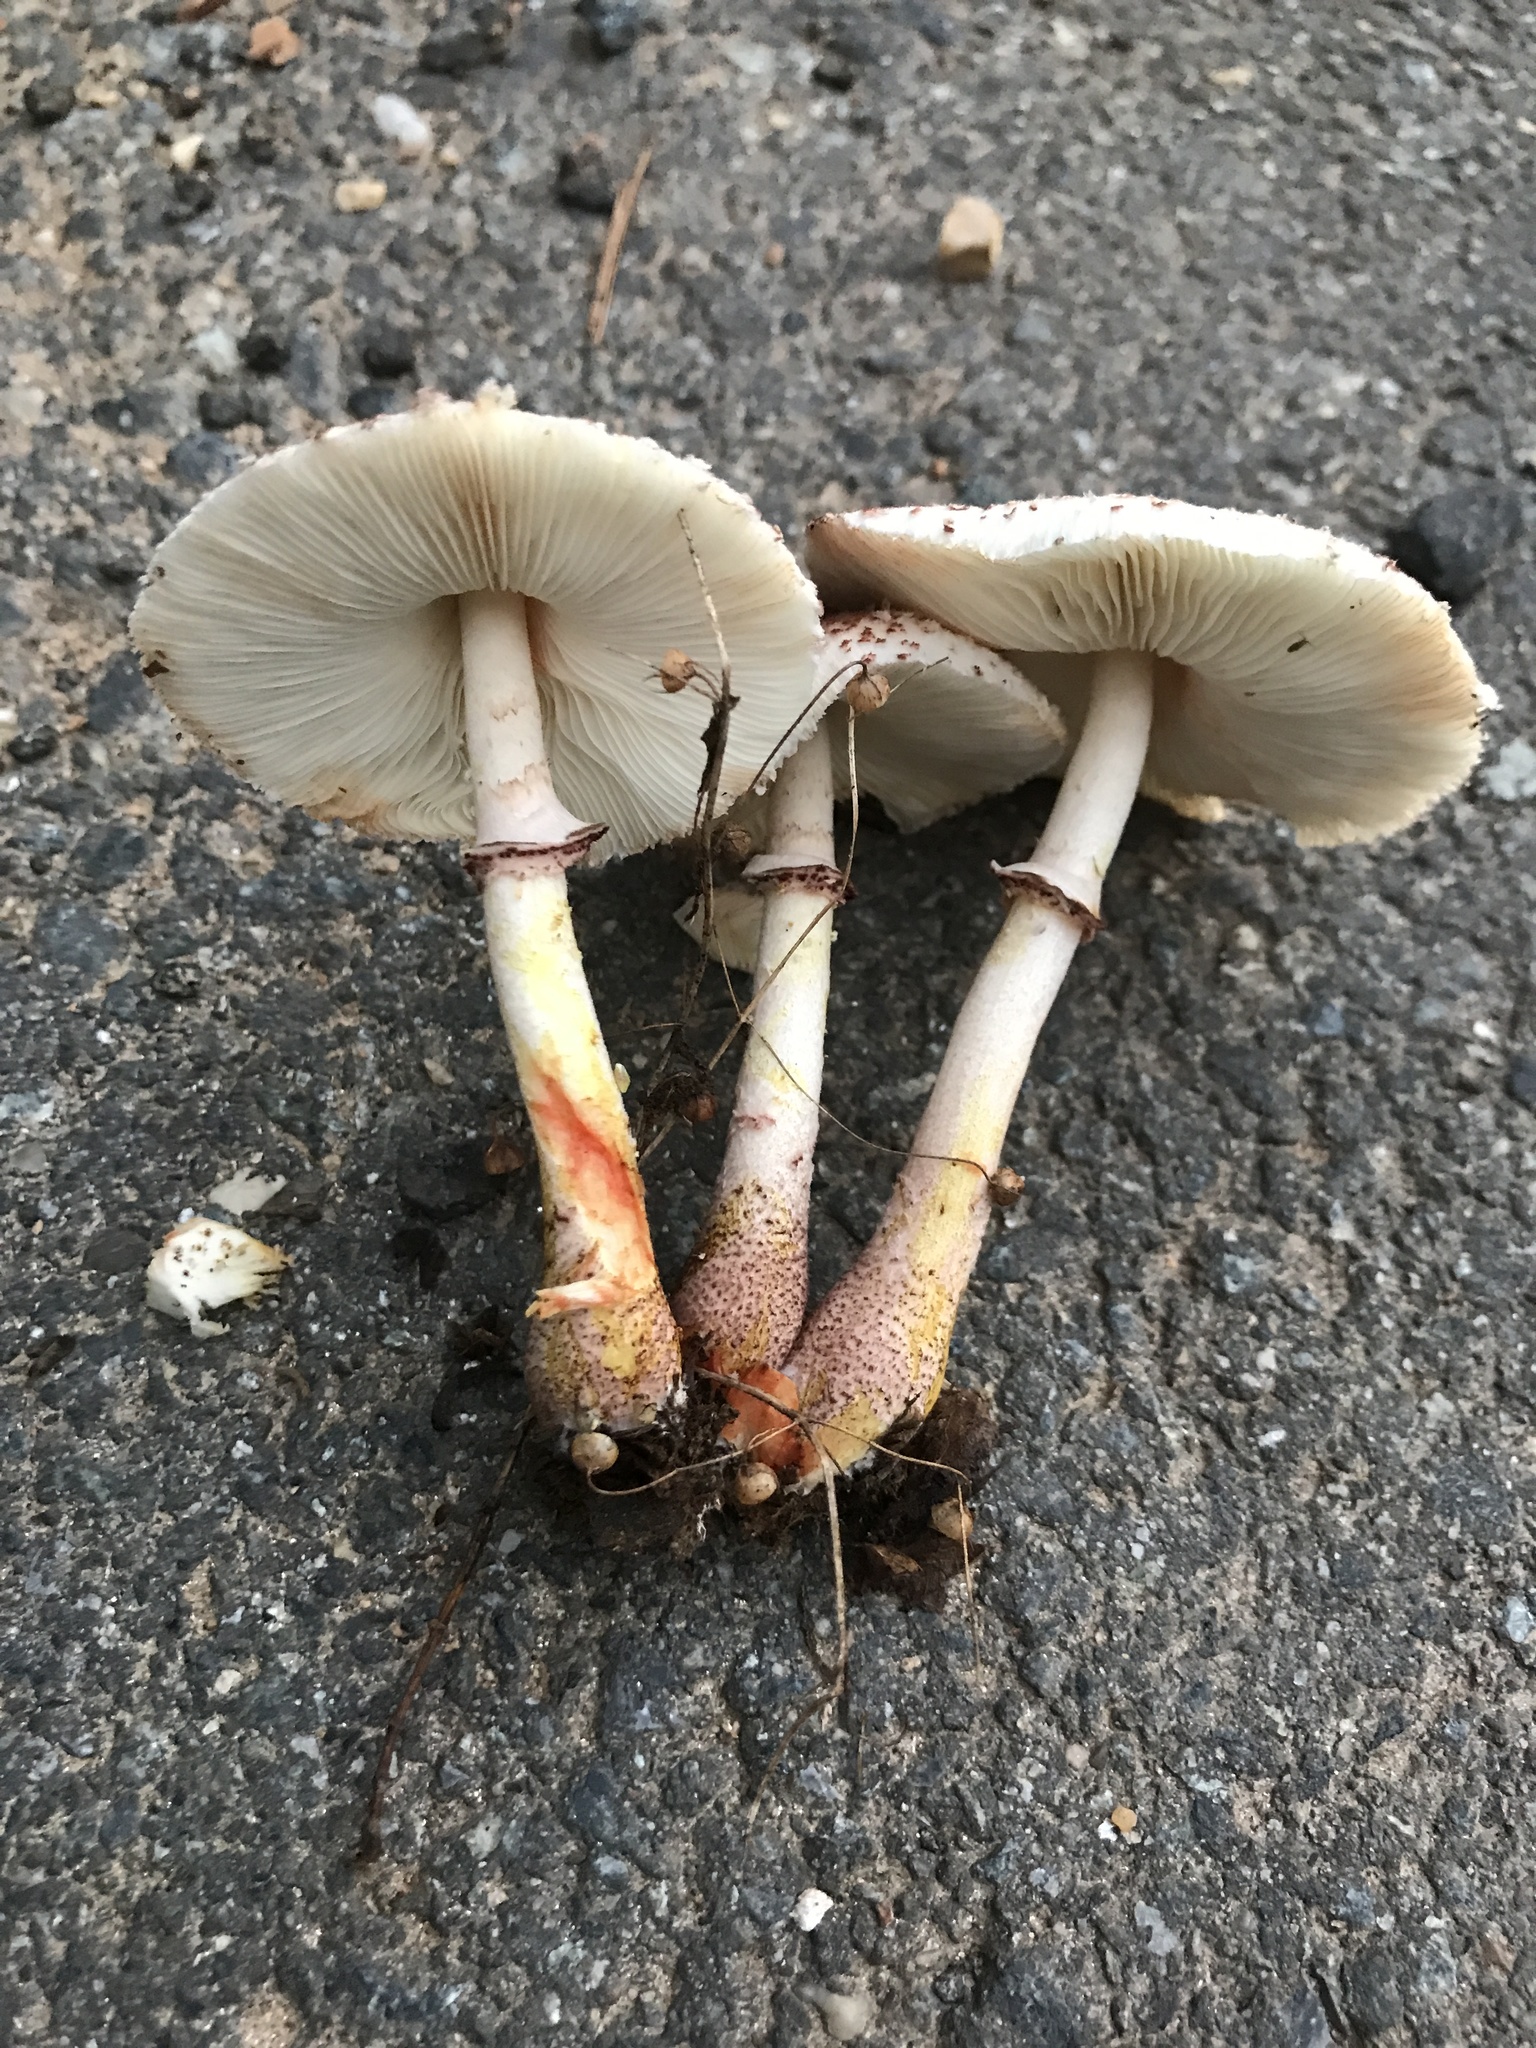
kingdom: Fungi
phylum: Basidiomycota
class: Agaricomycetes
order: Agaricales
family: Agaricaceae
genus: Leucoagaricus
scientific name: Leucoagaricus americanus
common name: Reddening lepiota
